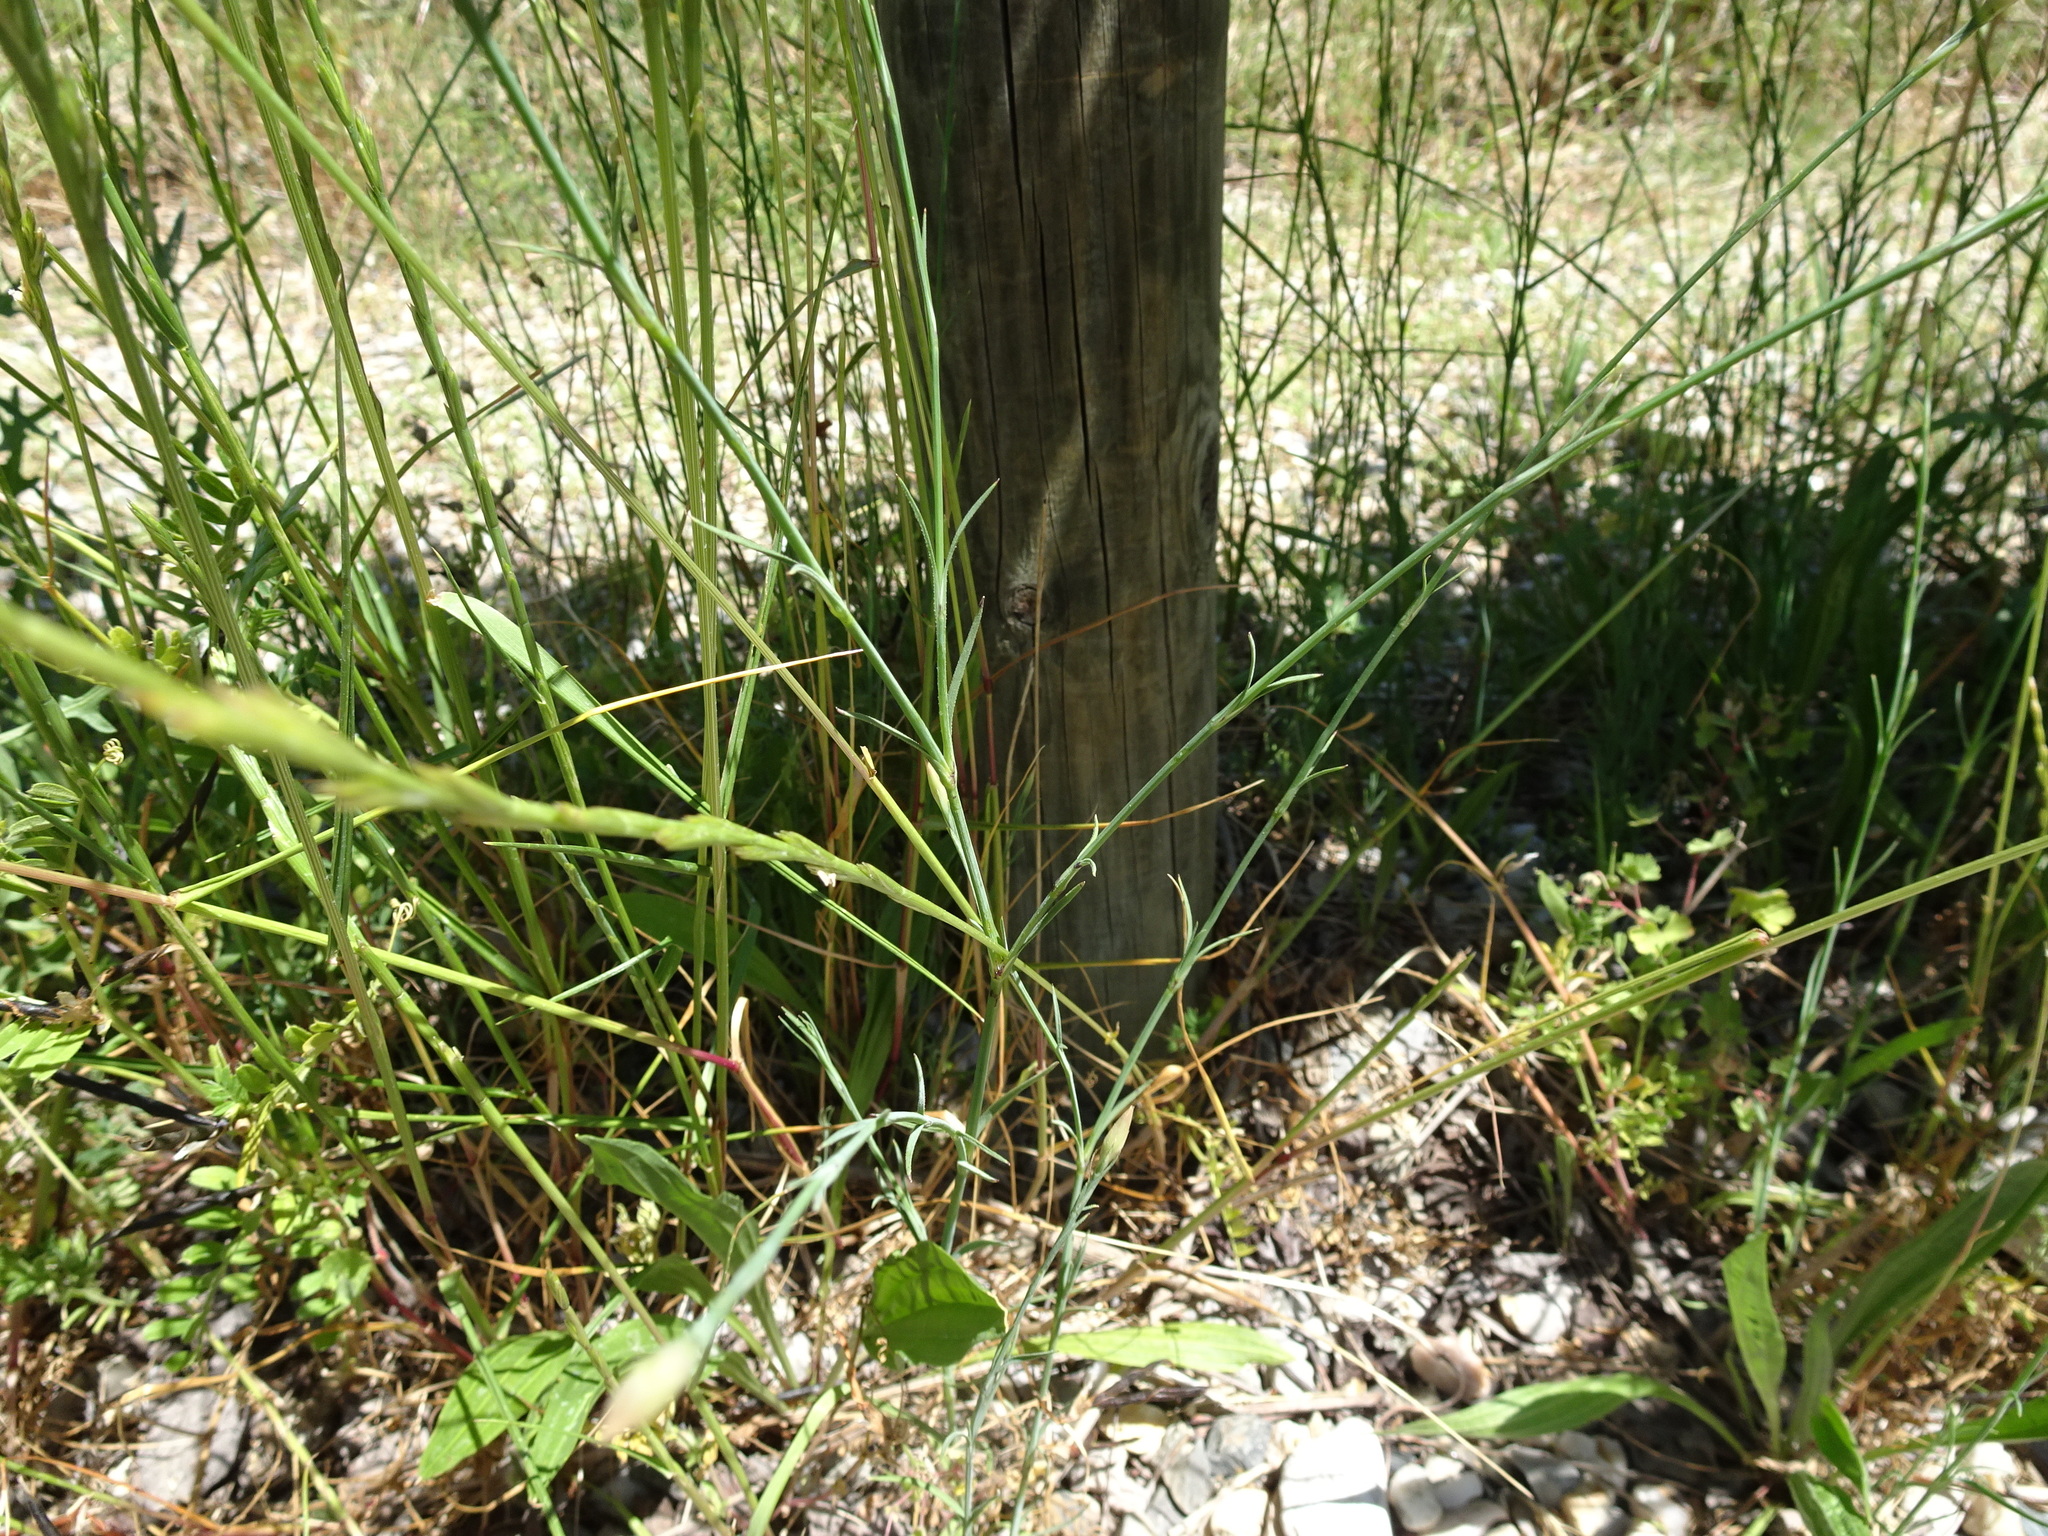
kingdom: Plantae
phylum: Tracheophyta
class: Magnoliopsida
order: Caryophyllales
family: Caryophyllaceae
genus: Petrorhagia
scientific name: Petrorhagia prolifera
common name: Proliferous pink
